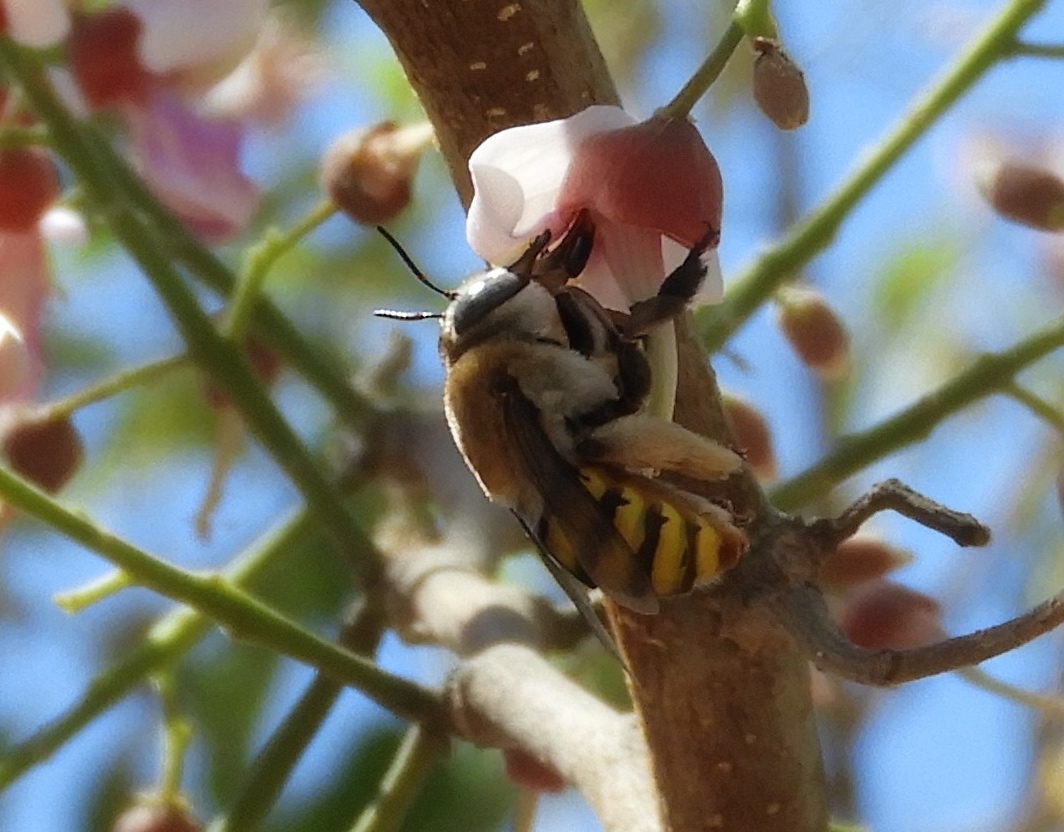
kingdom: Animalia
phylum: Arthropoda
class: Insecta
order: Hymenoptera
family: Apidae
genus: Centris
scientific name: Centris
